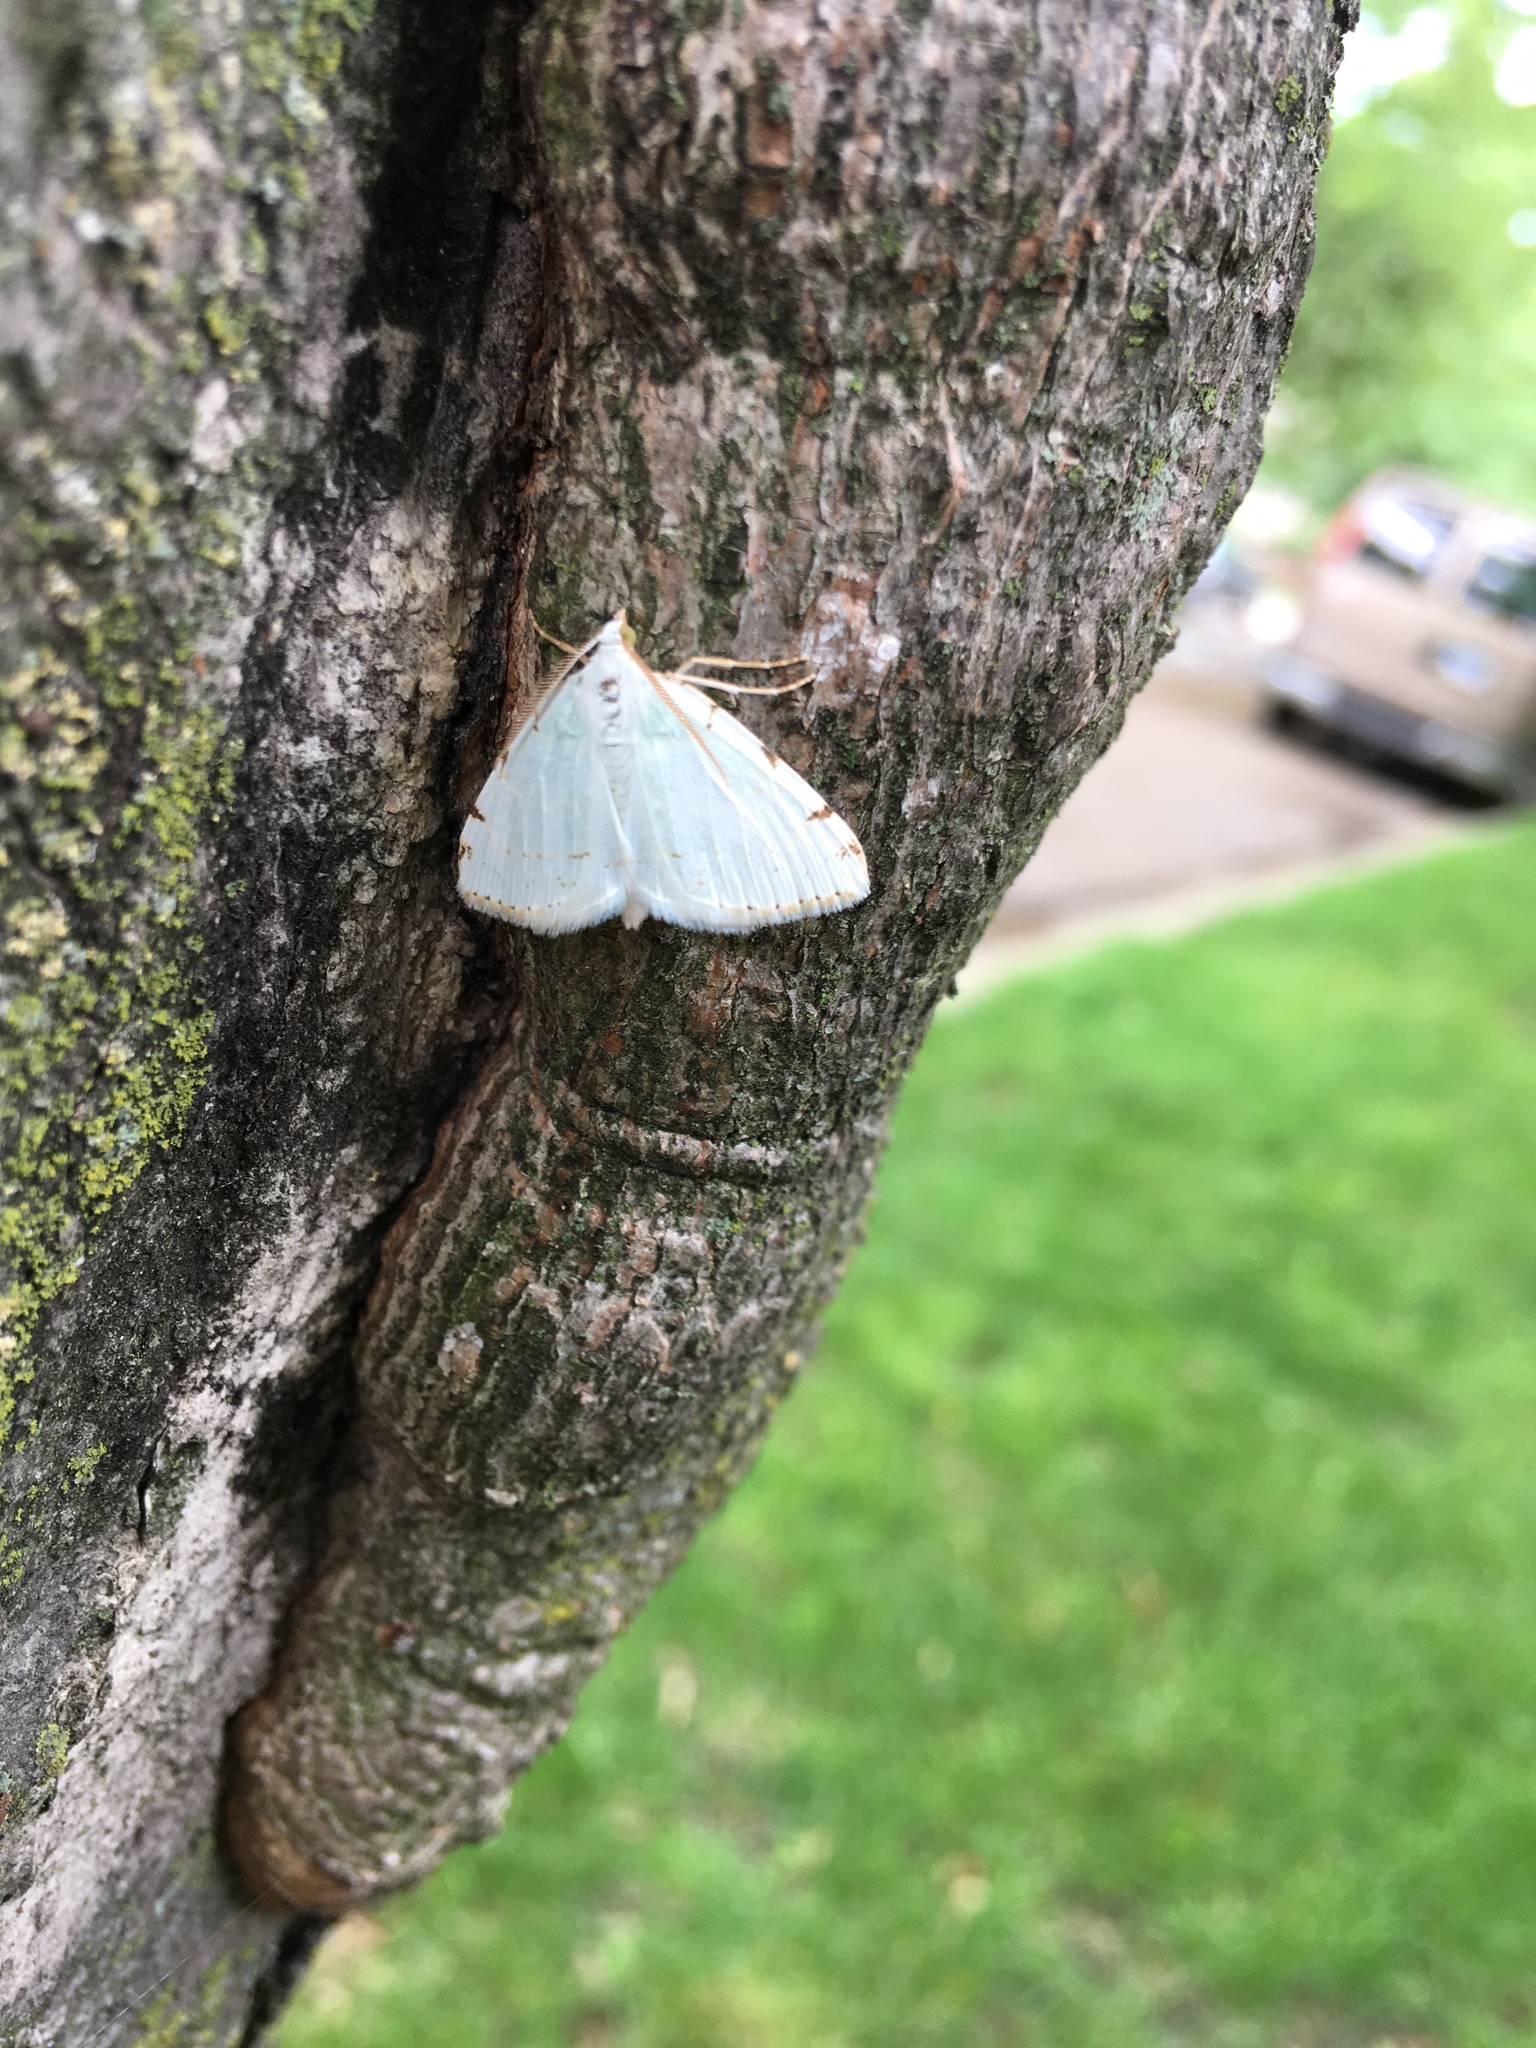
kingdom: Animalia
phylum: Arthropoda
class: Insecta
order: Lepidoptera
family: Geometridae
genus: Macaria
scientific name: Macaria pustularia
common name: Lesser maple spanworm moth
